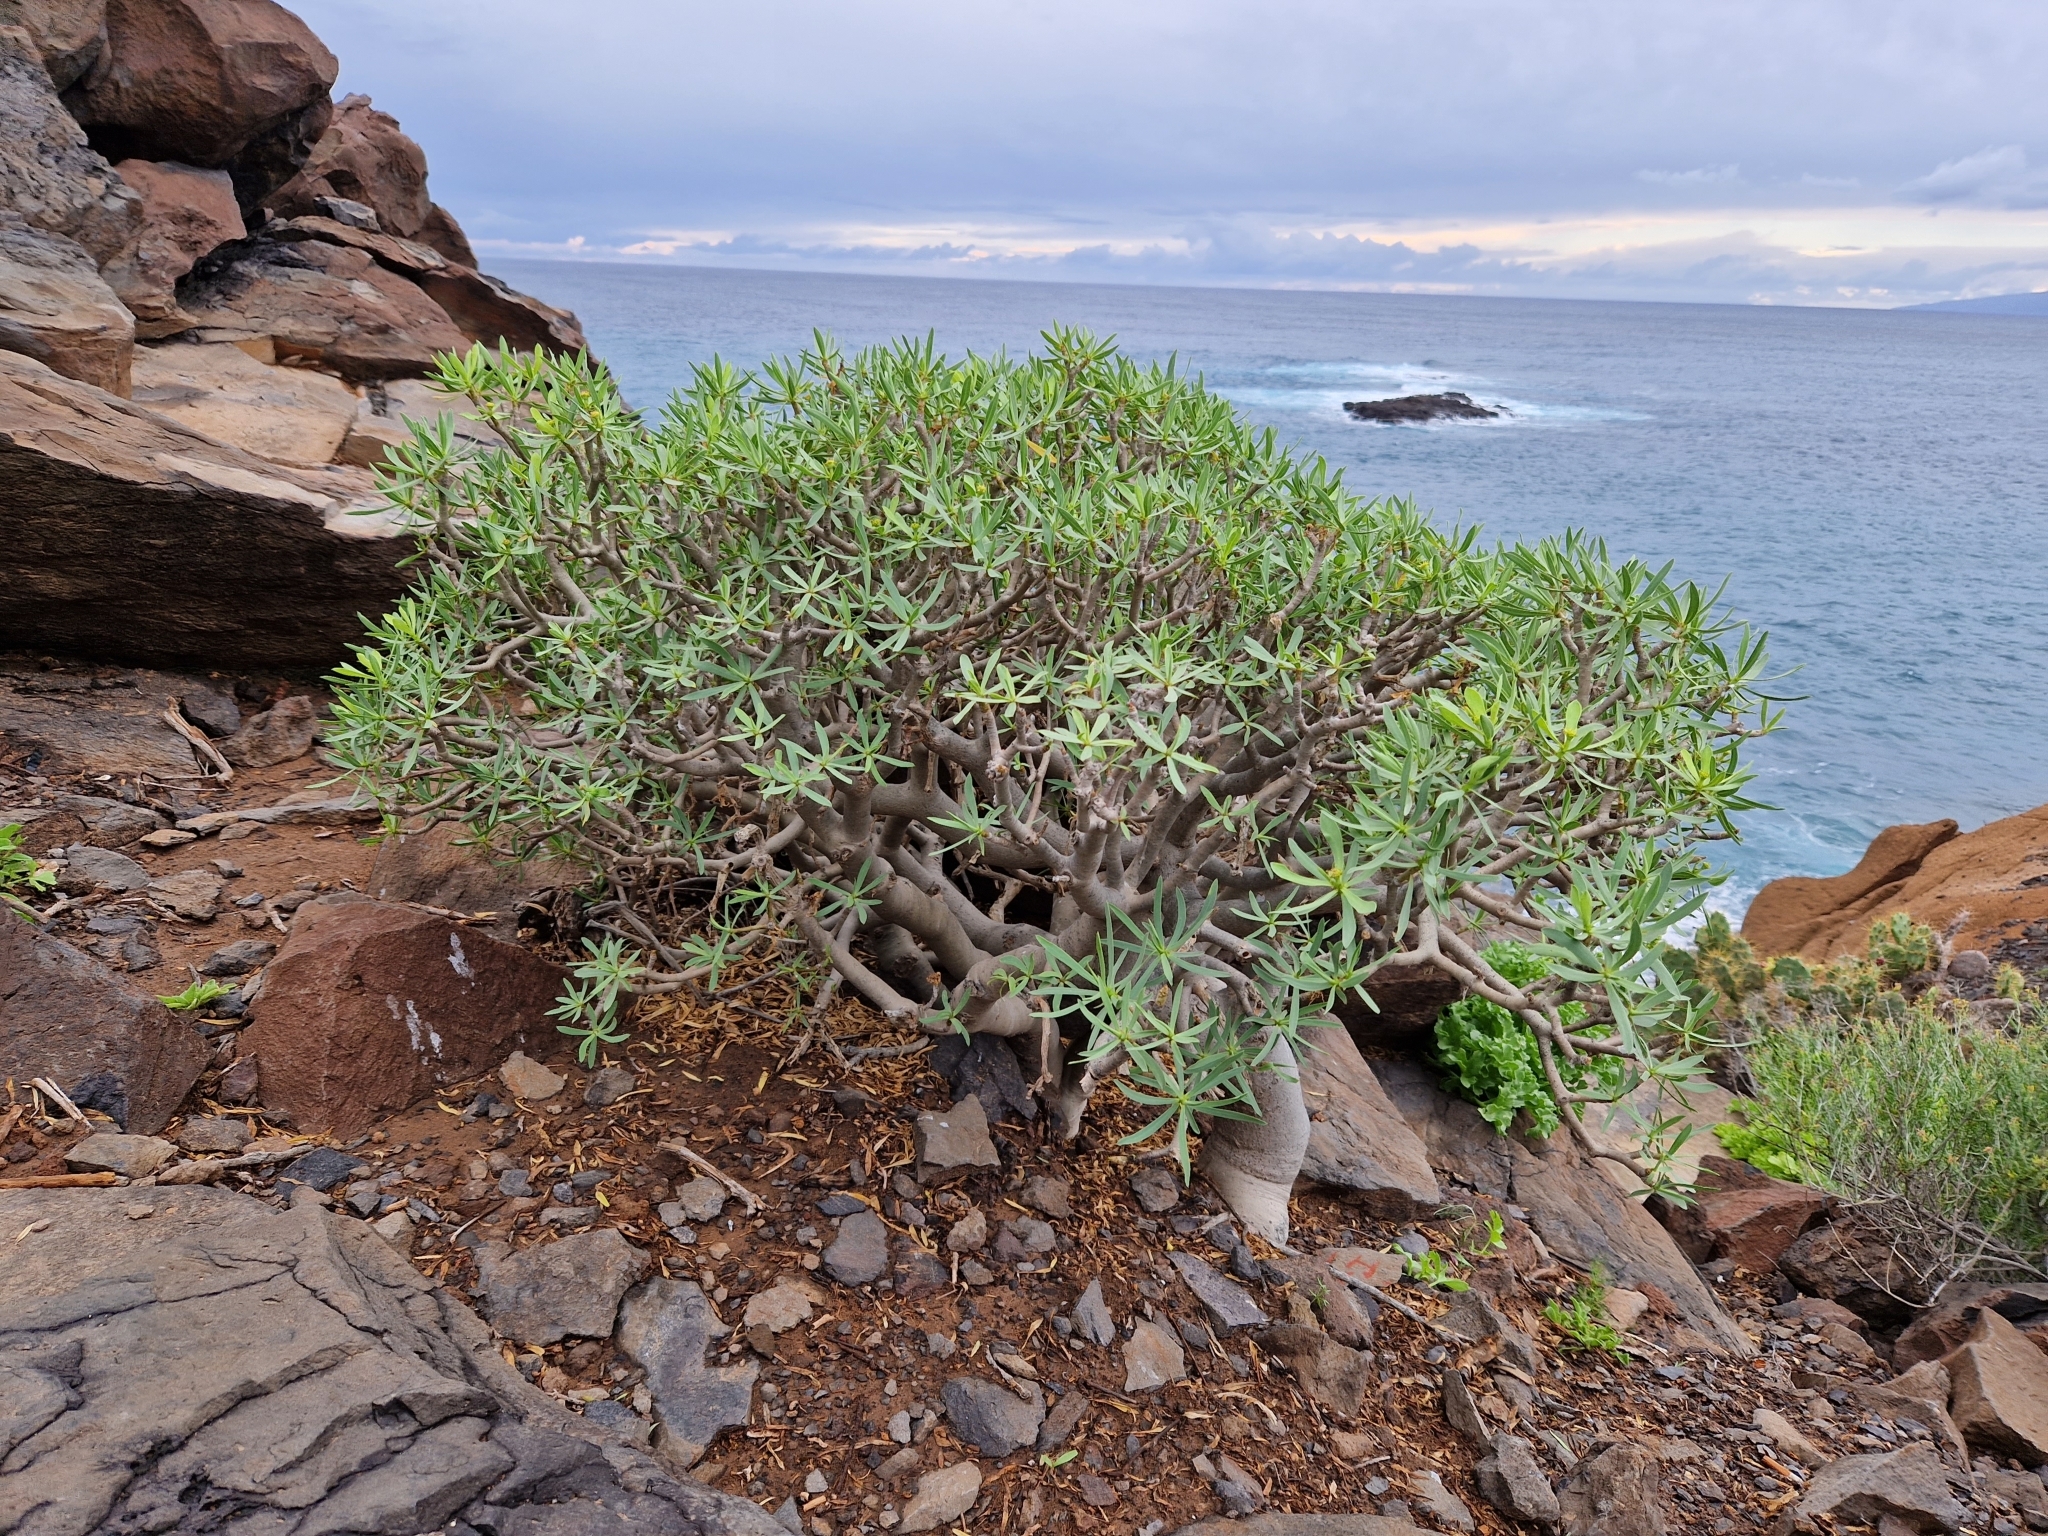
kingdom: Plantae
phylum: Tracheophyta
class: Magnoliopsida
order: Malpighiales
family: Euphorbiaceae
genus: Euphorbia
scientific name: Euphorbia balsamifera
